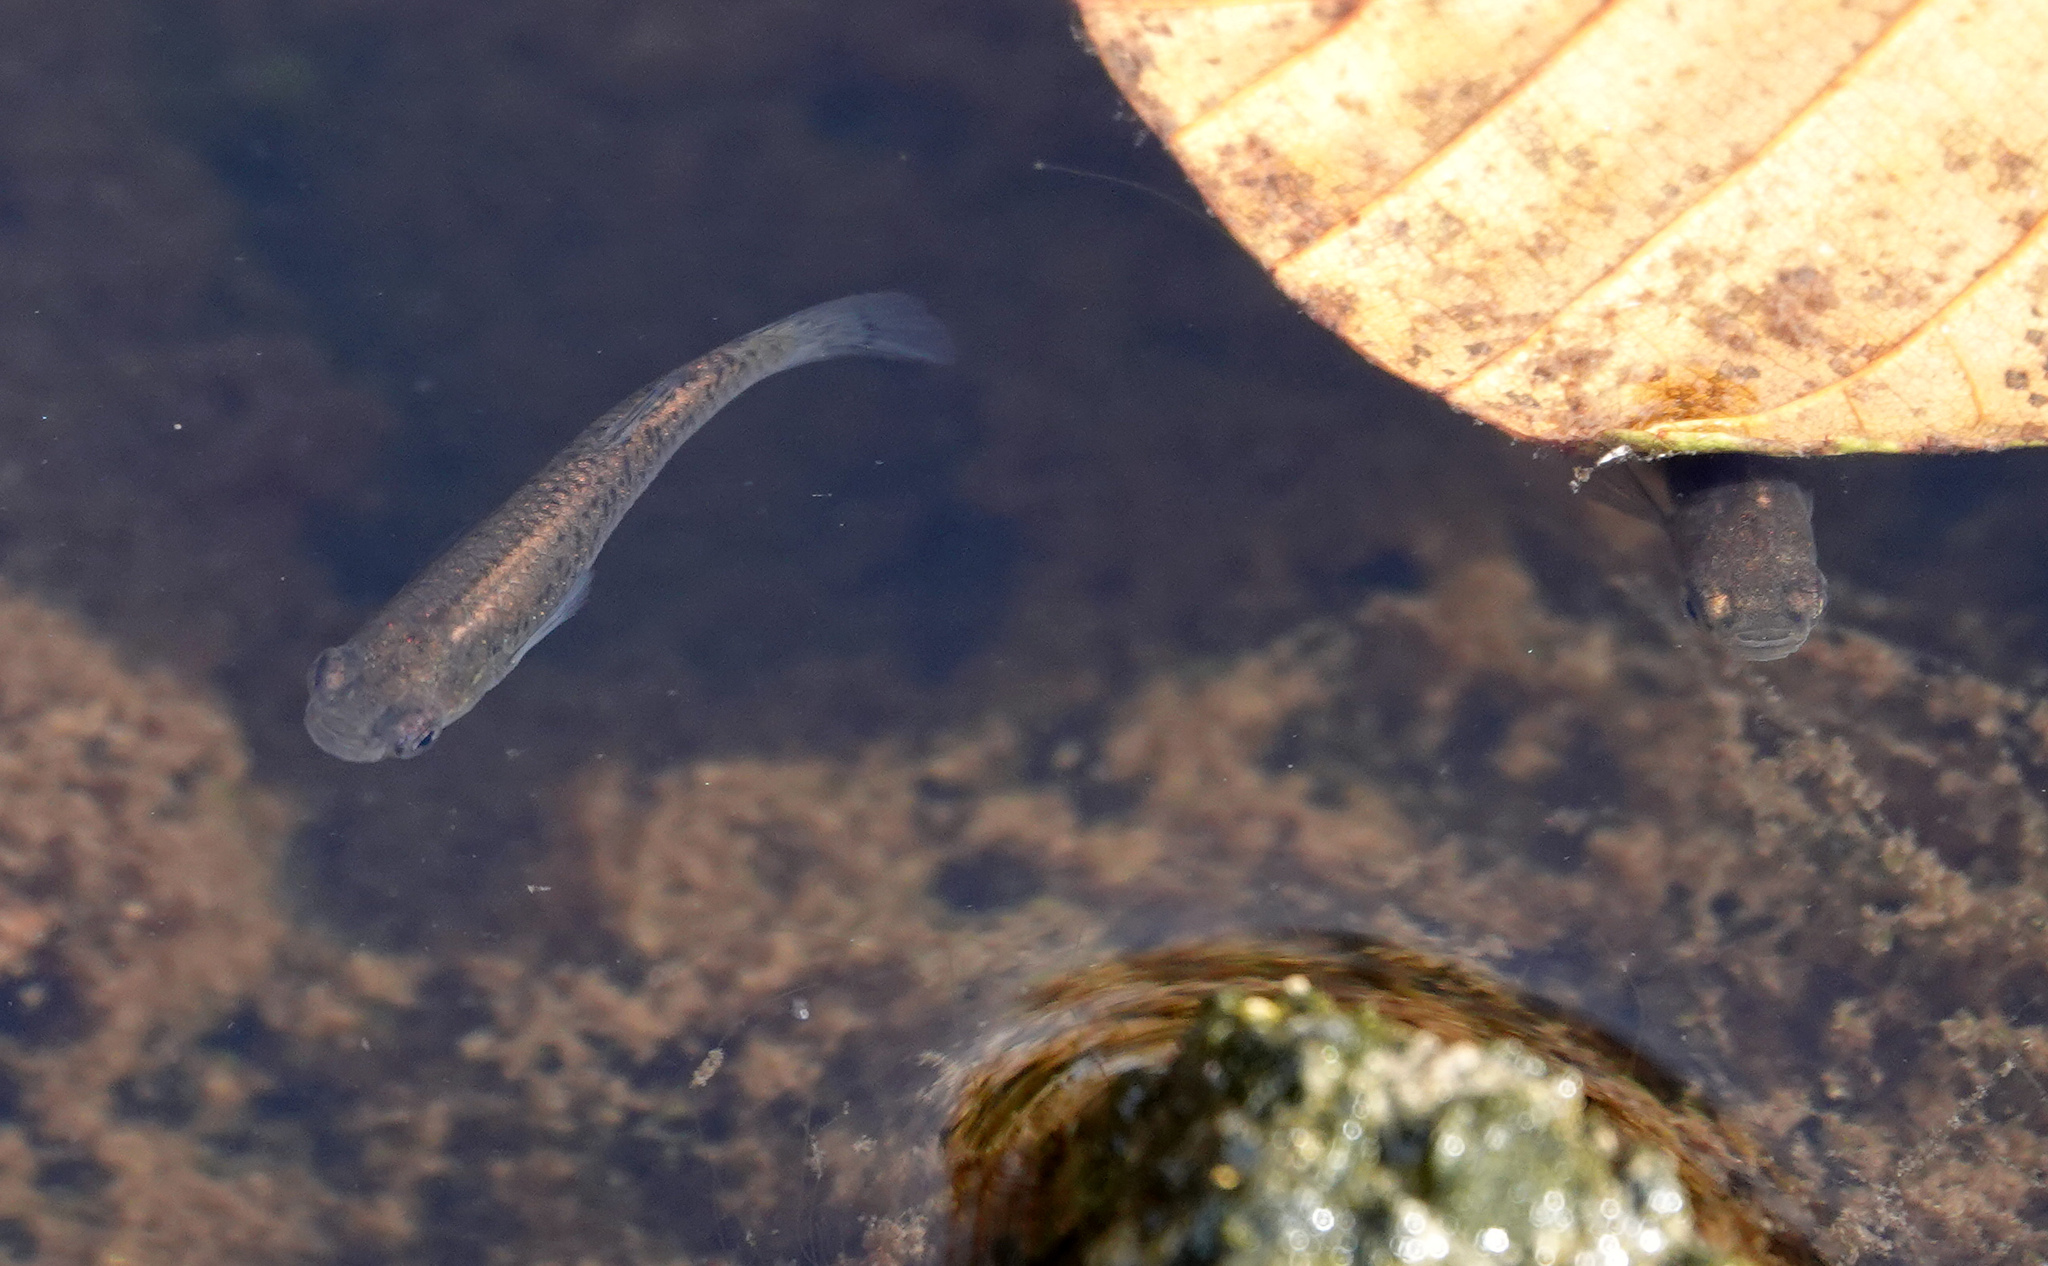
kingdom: Animalia
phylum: Chordata
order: Cyprinodontiformes
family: Poeciliidae
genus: Gambusia
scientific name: Gambusia holbrooki
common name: Eastern mosquitofish
